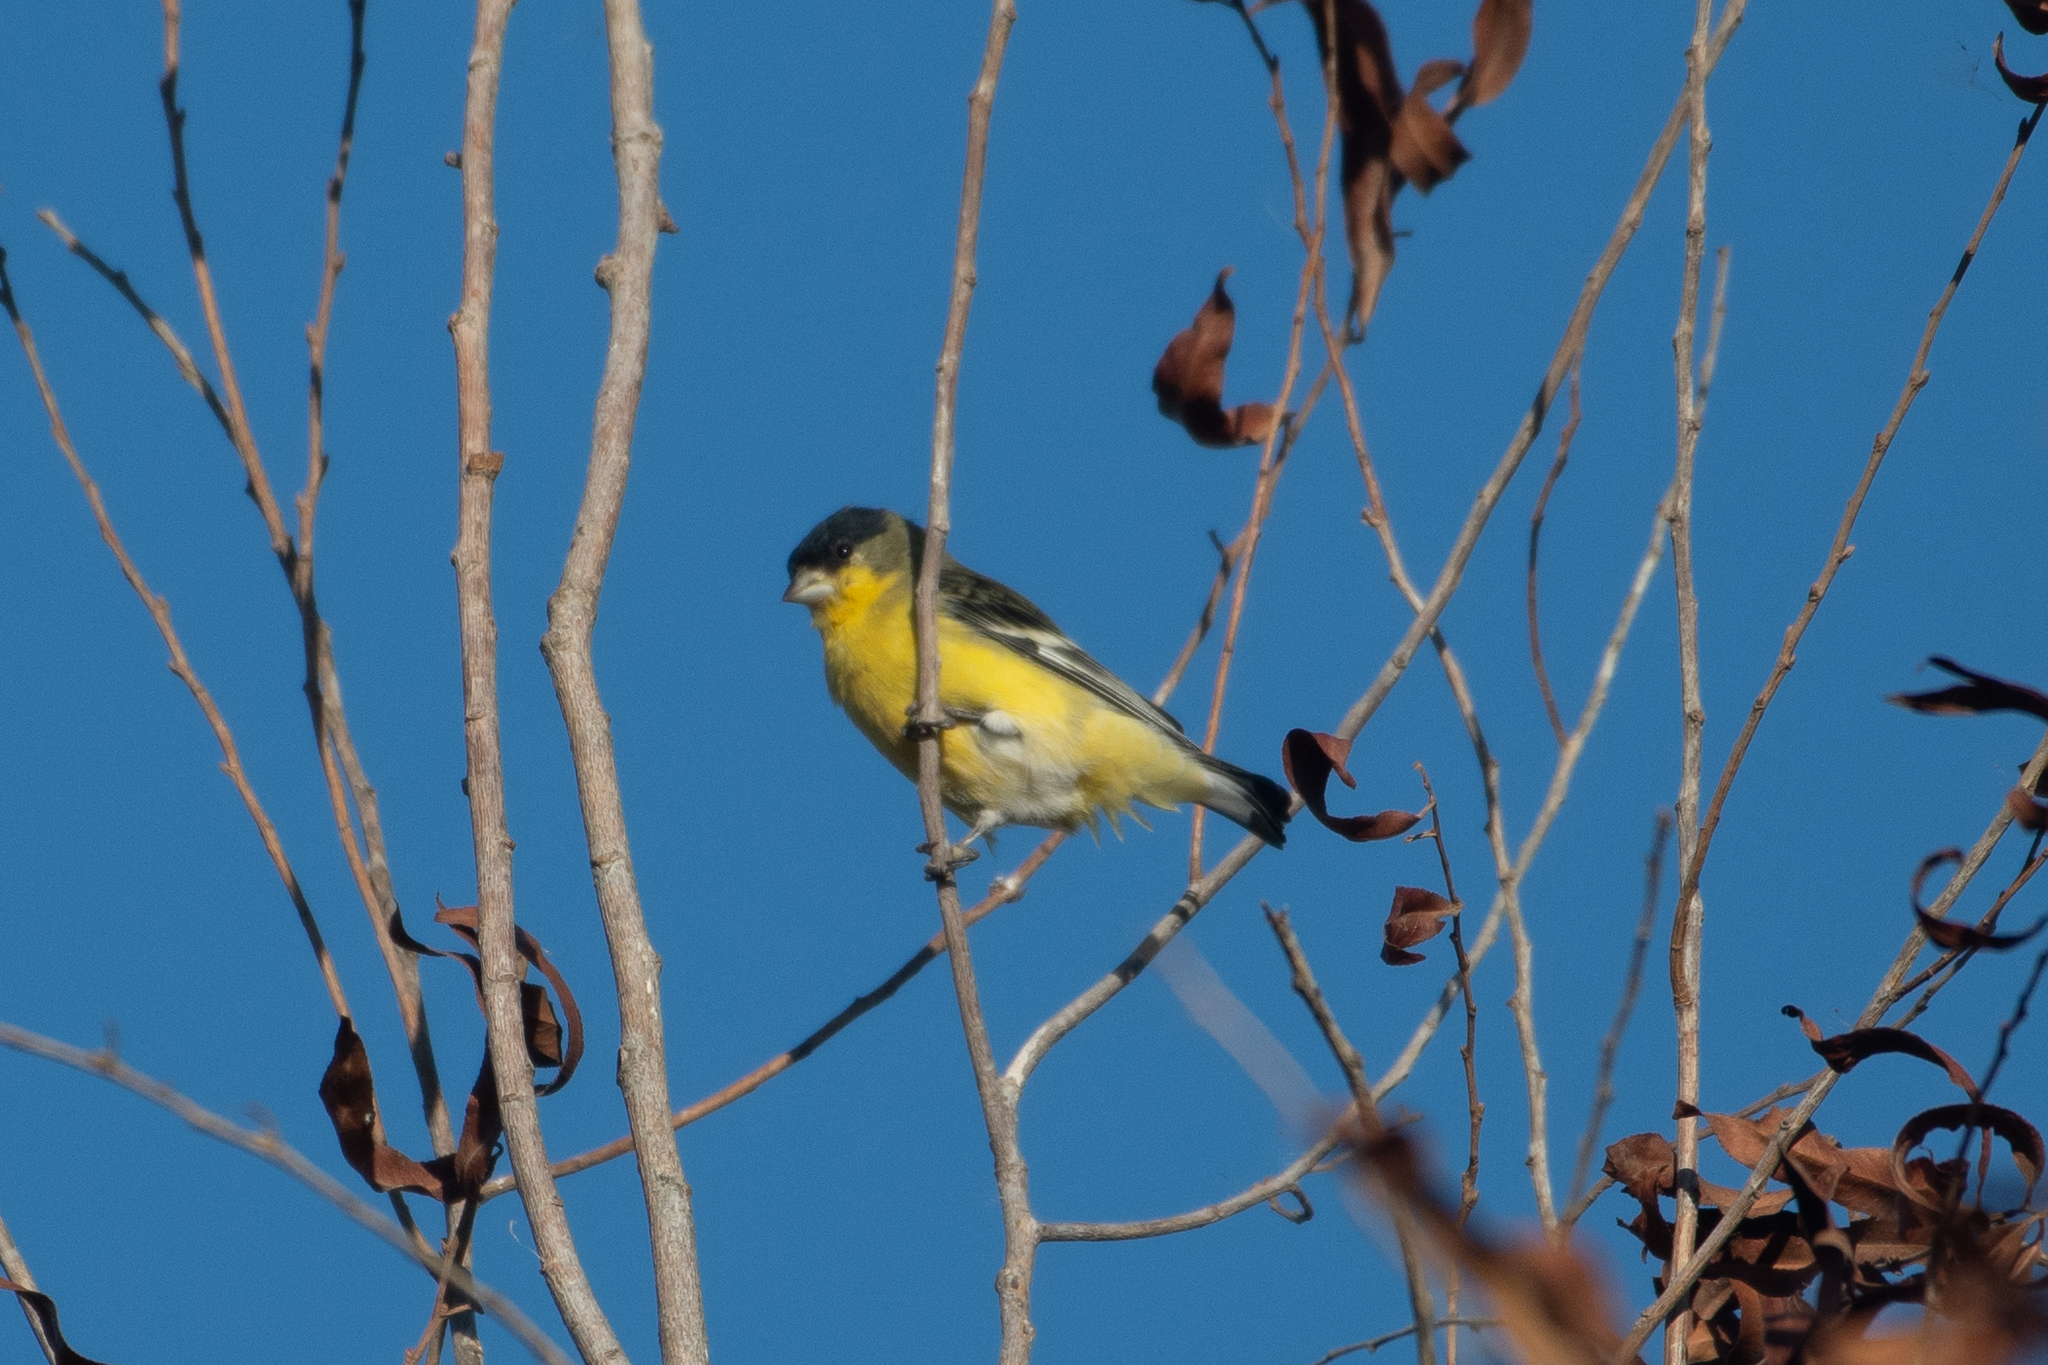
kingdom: Animalia
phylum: Chordata
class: Aves
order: Passeriformes
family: Fringillidae
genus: Spinus
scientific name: Spinus psaltria
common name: Lesser goldfinch
